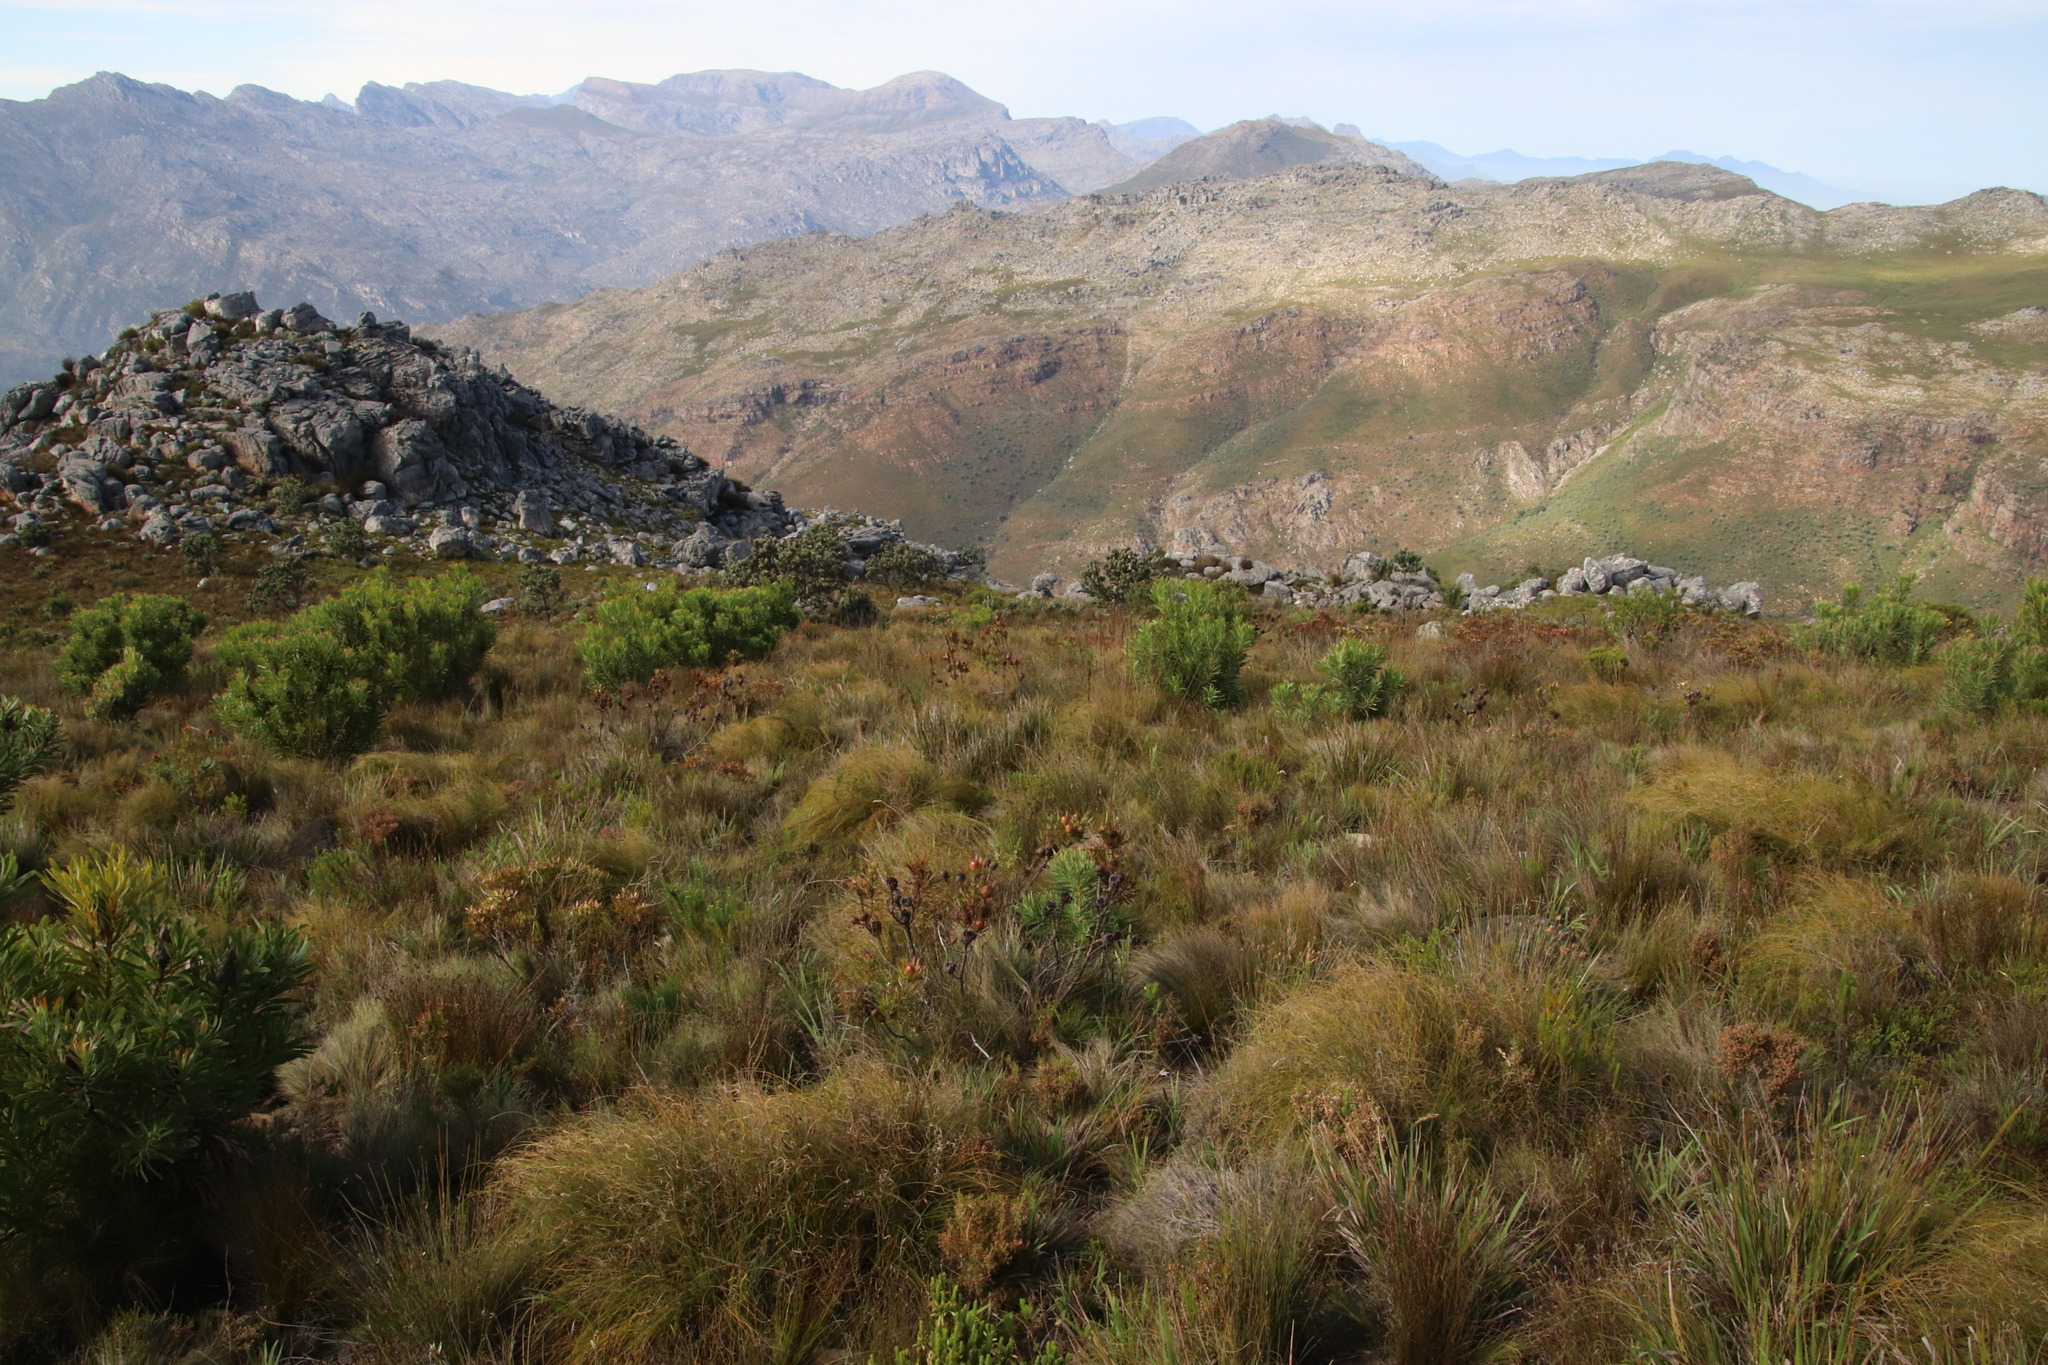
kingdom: Plantae
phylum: Tracheophyta
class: Magnoliopsida
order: Proteales
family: Proteaceae
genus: Leucadendron
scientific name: Leucadendron spissifolium
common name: Spear-leaf conebush
